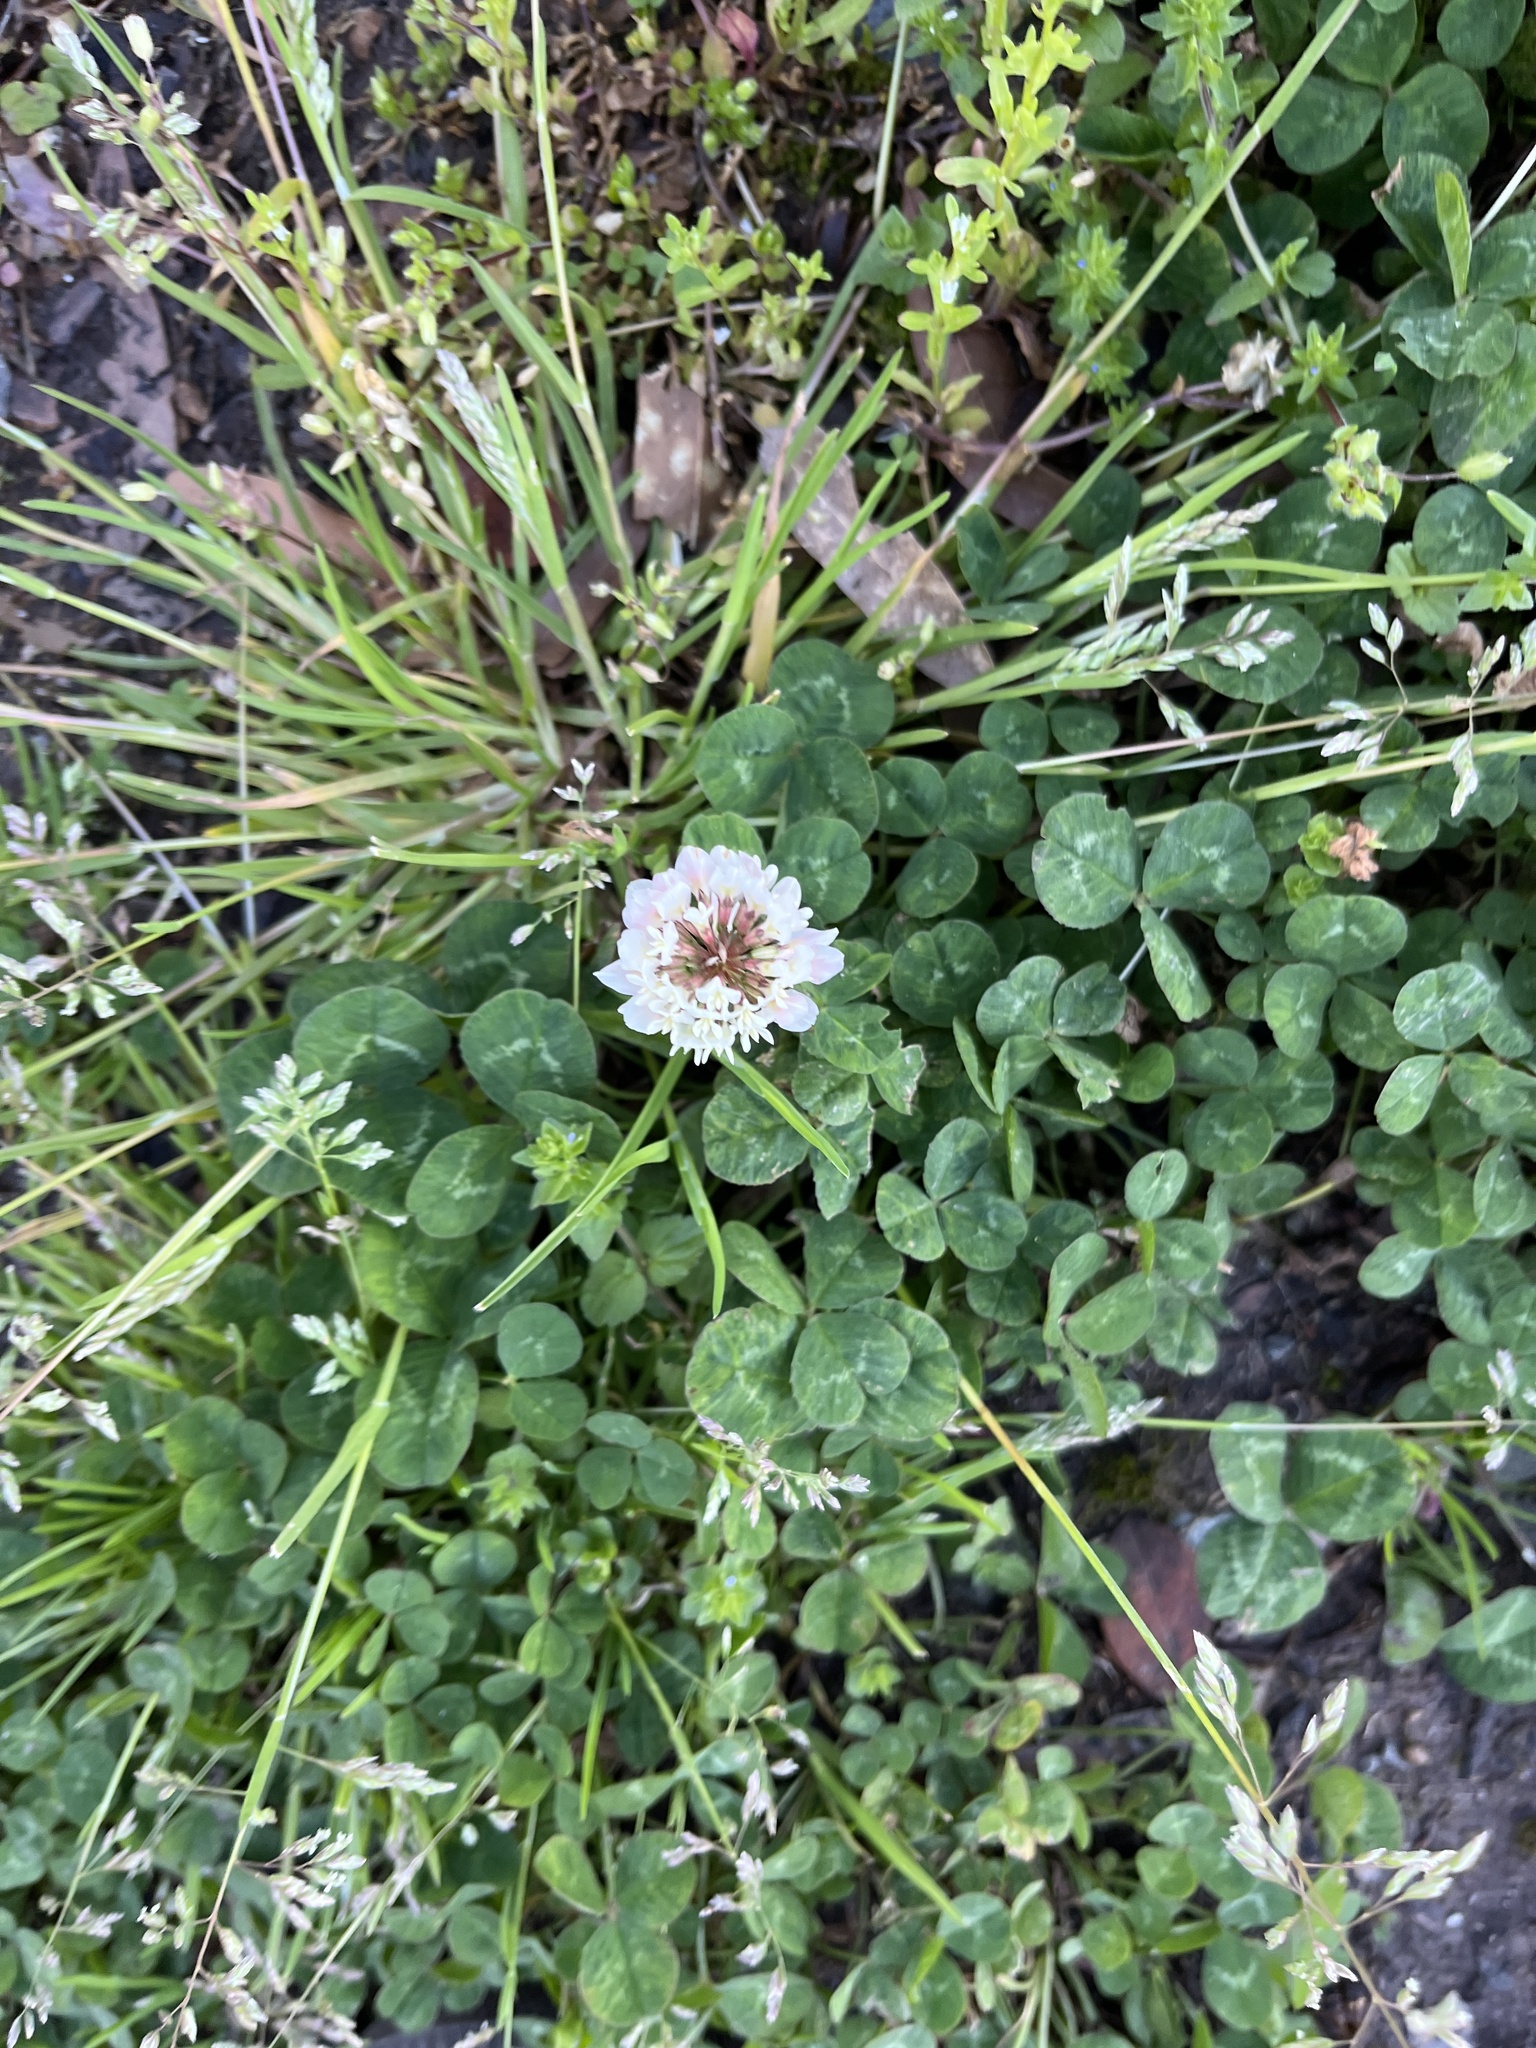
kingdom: Plantae
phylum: Tracheophyta
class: Magnoliopsida
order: Fabales
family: Fabaceae
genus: Trifolium
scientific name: Trifolium repens
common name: White clover
